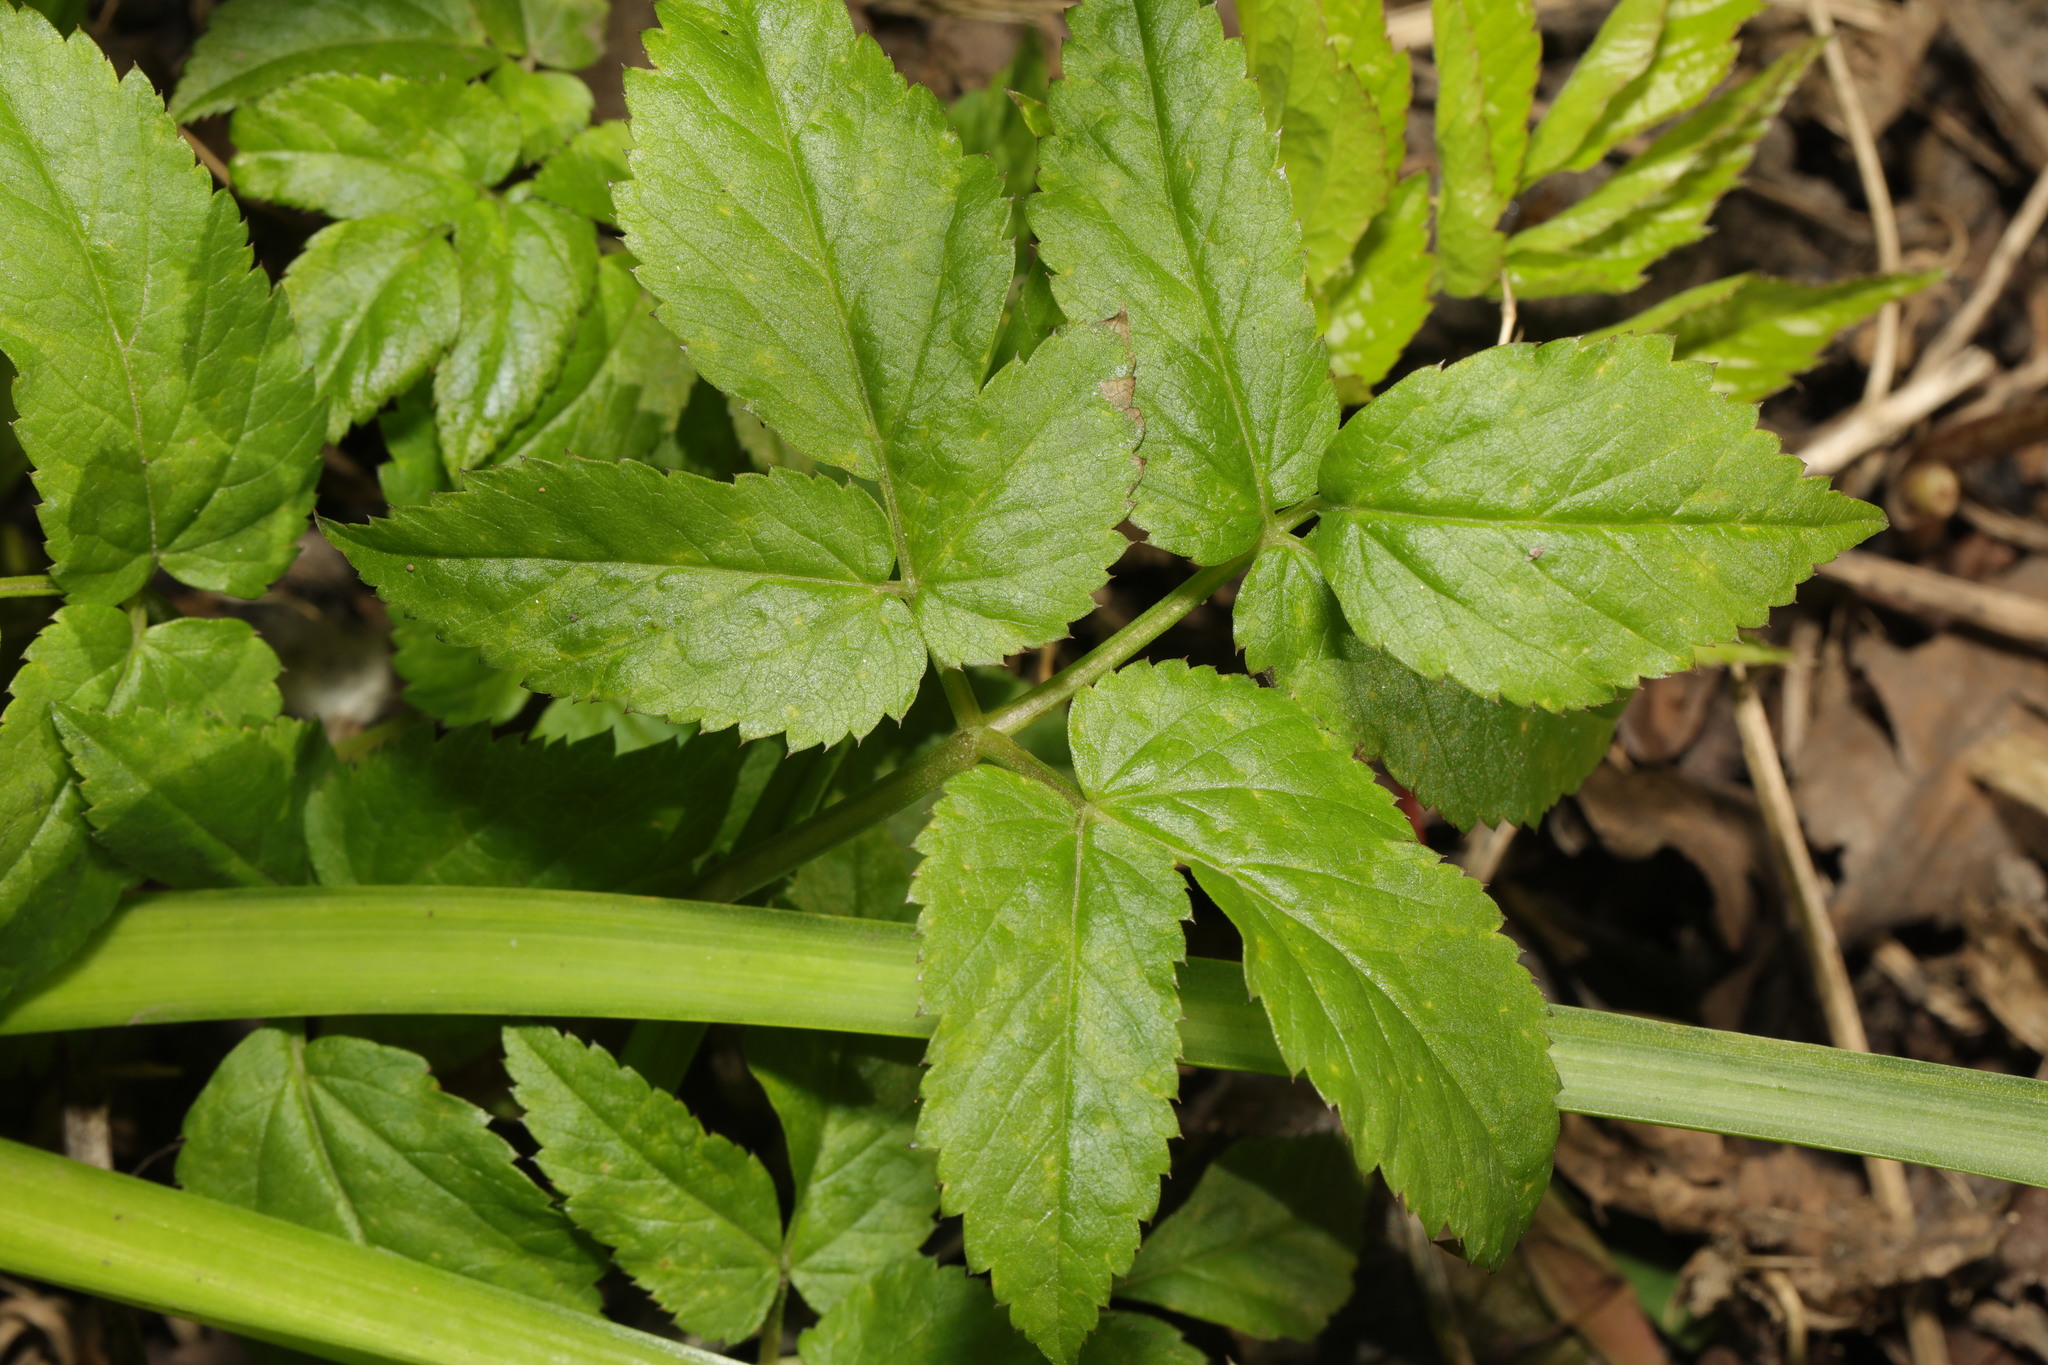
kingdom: Plantae
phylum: Tracheophyta
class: Magnoliopsida
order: Apiales
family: Apiaceae
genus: Aegopodium
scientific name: Aegopodium podagraria
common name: Ground-elder
